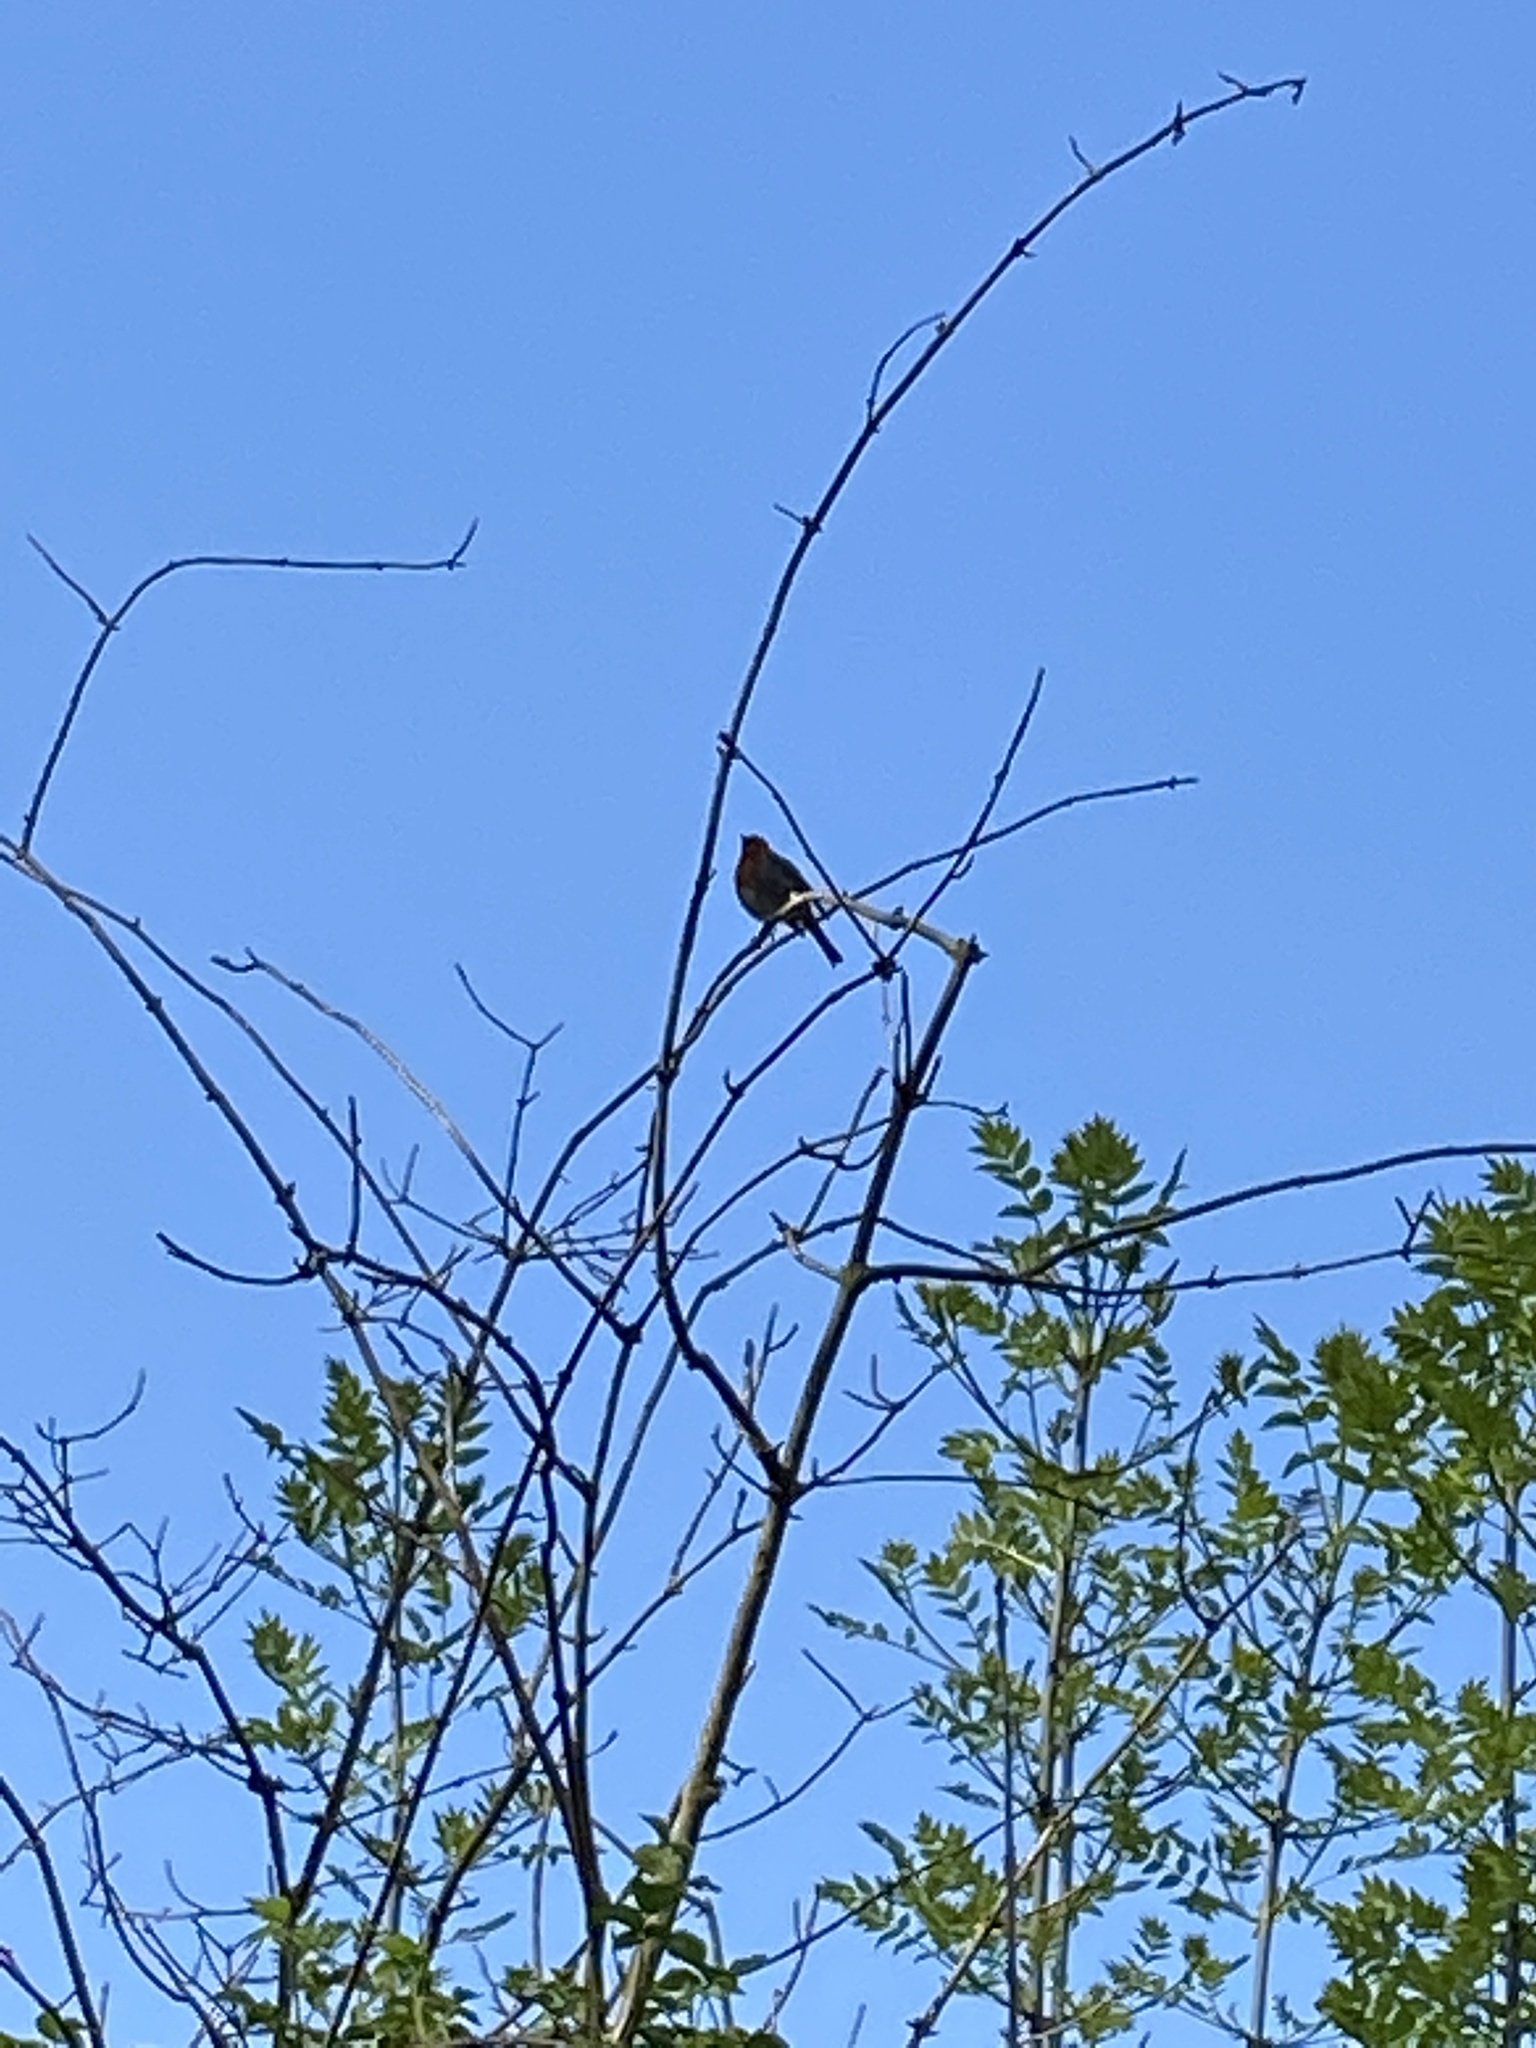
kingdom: Animalia
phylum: Chordata
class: Aves
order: Passeriformes
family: Muscicapidae
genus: Erithacus
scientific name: Erithacus rubecula
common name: European robin
